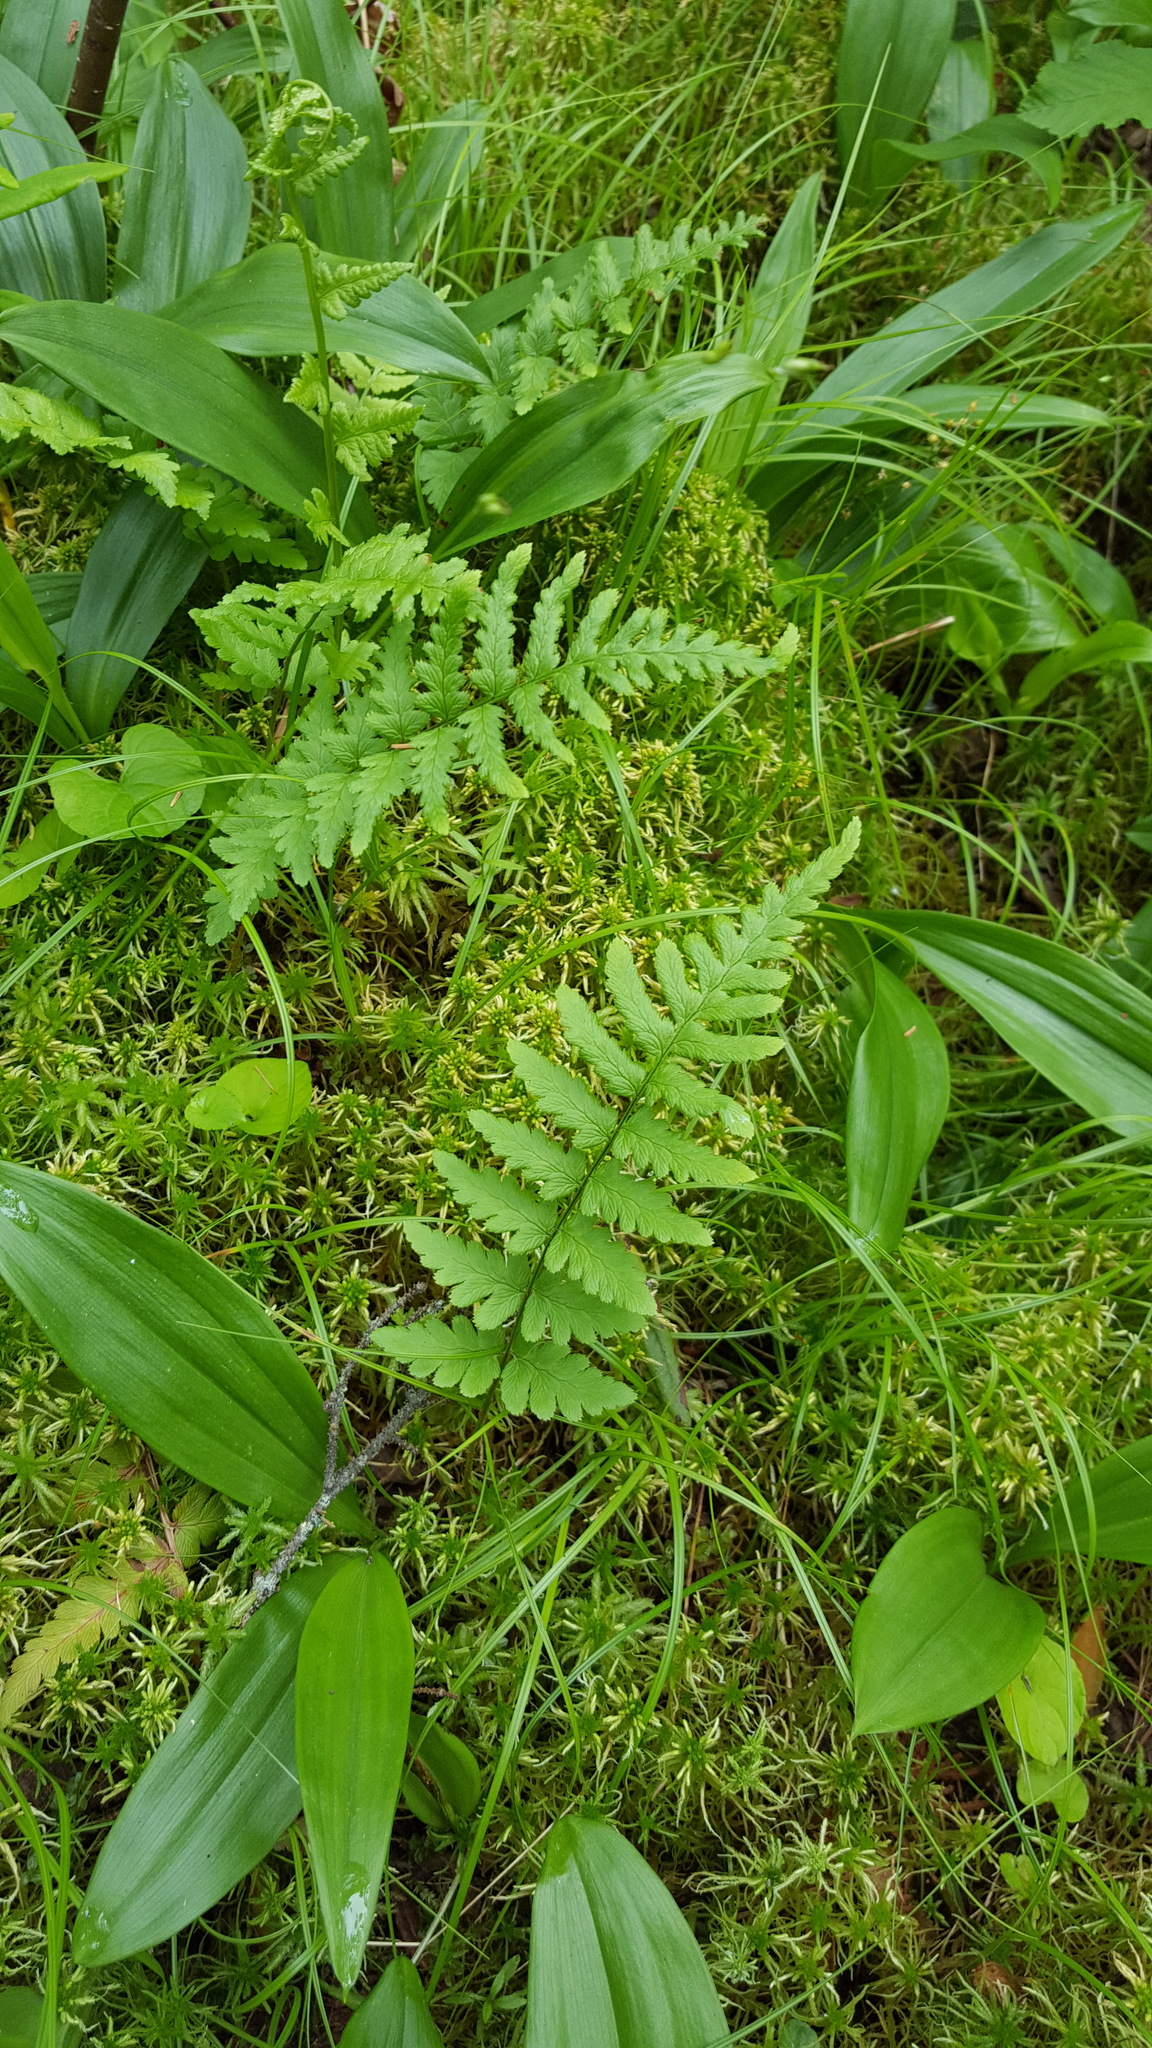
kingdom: Plantae
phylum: Tracheophyta
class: Polypodiopsida
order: Polypodiales
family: Dryopteridaceae
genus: Dryopteris
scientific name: Dryopteris cristata
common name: Crested wood fern
